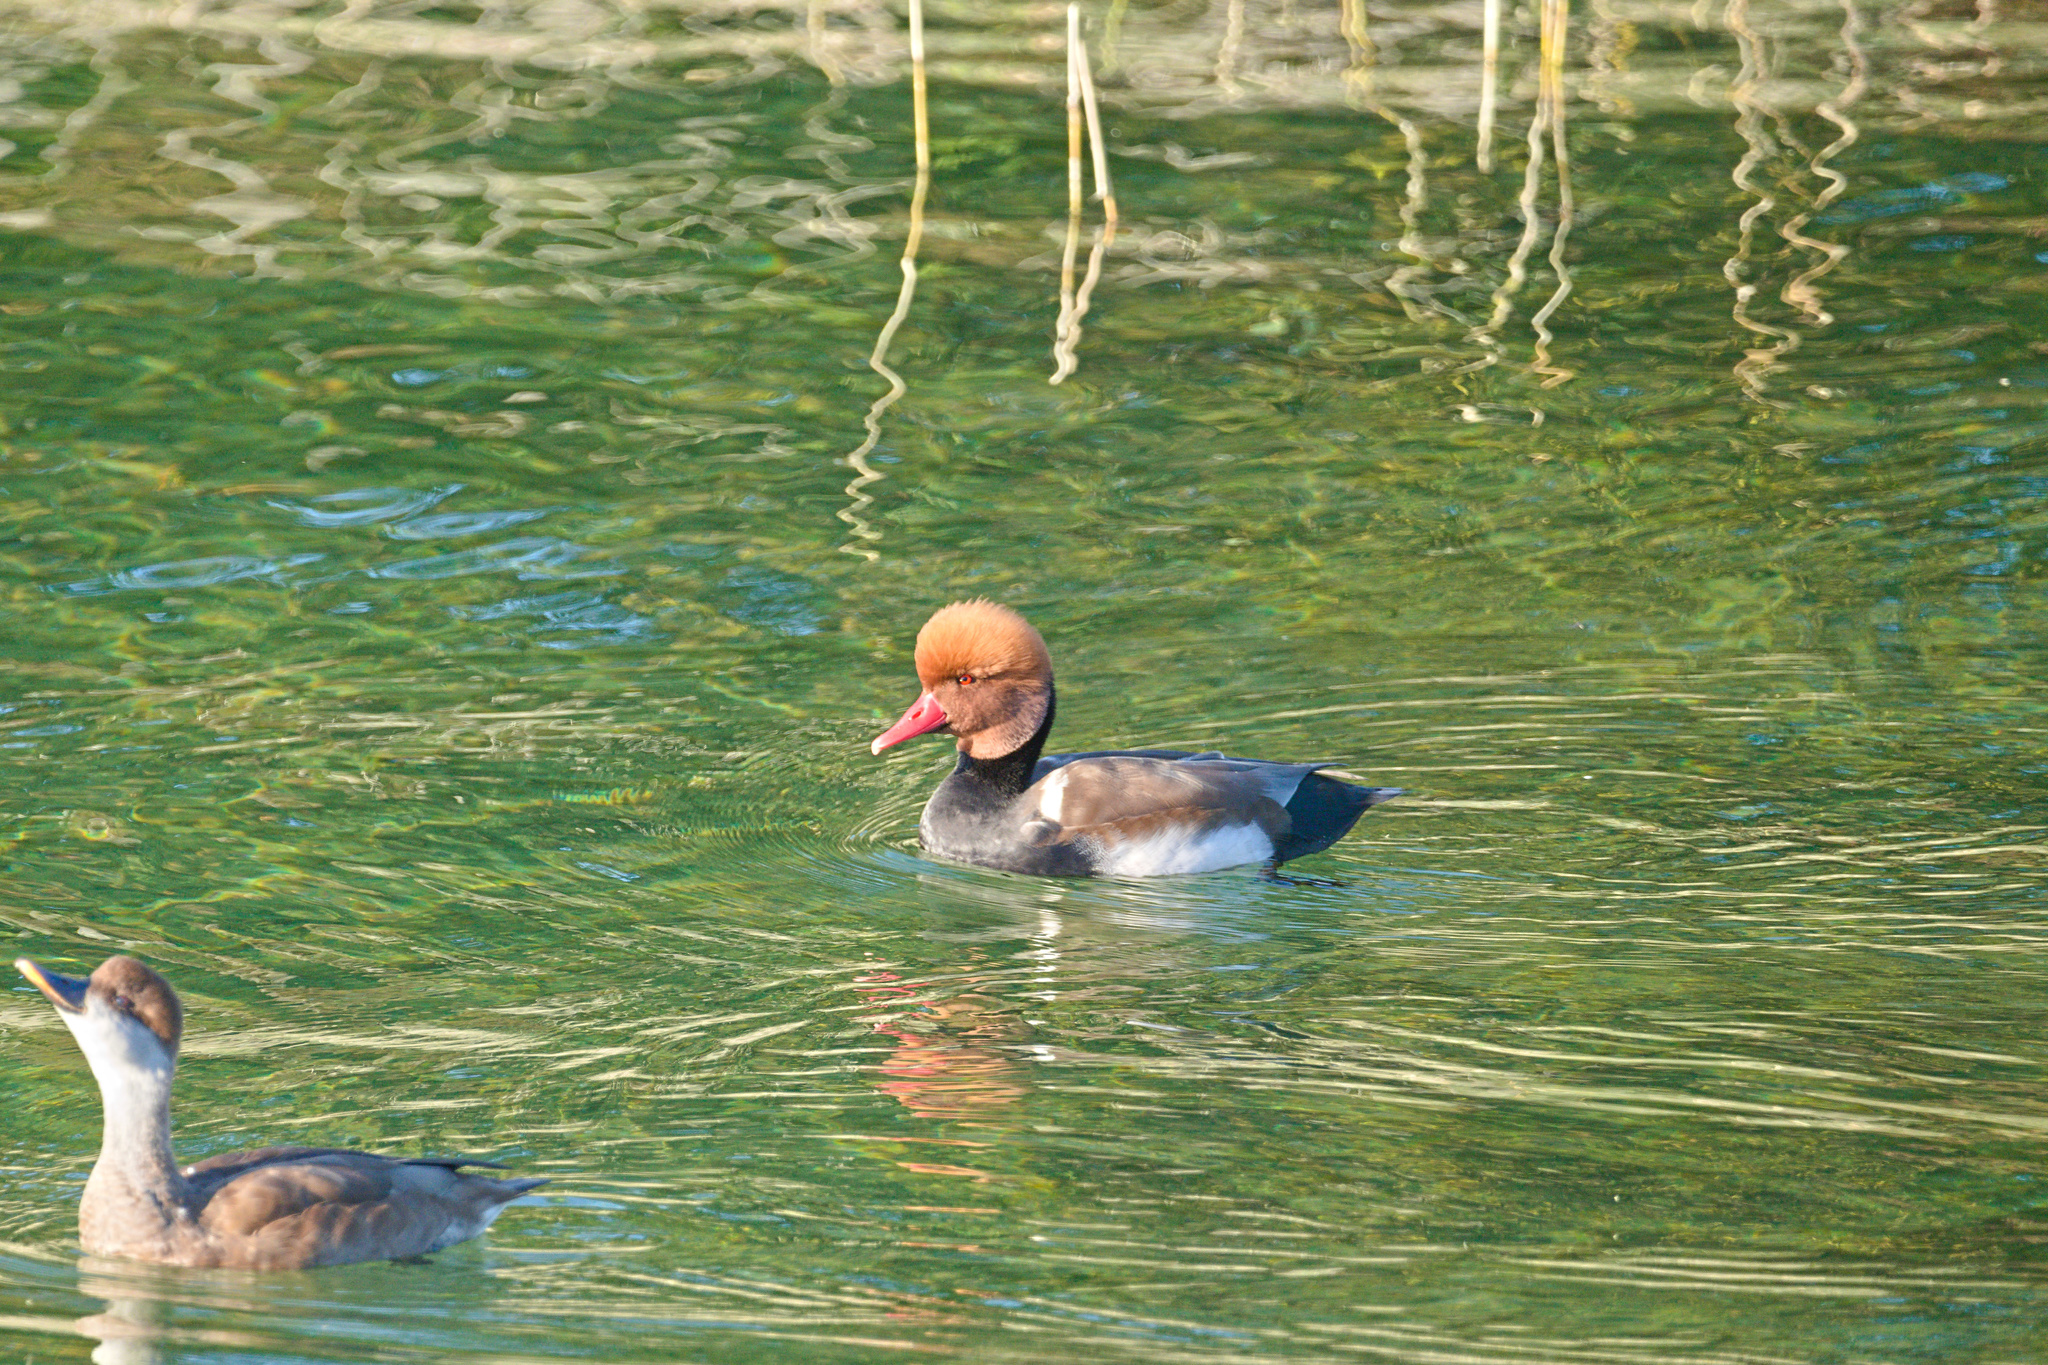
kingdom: Animalia
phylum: Chordata
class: Aves
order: Anseriformes
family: Anatidae
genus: Netta
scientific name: Netta rufina
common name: Red-crested pochard
